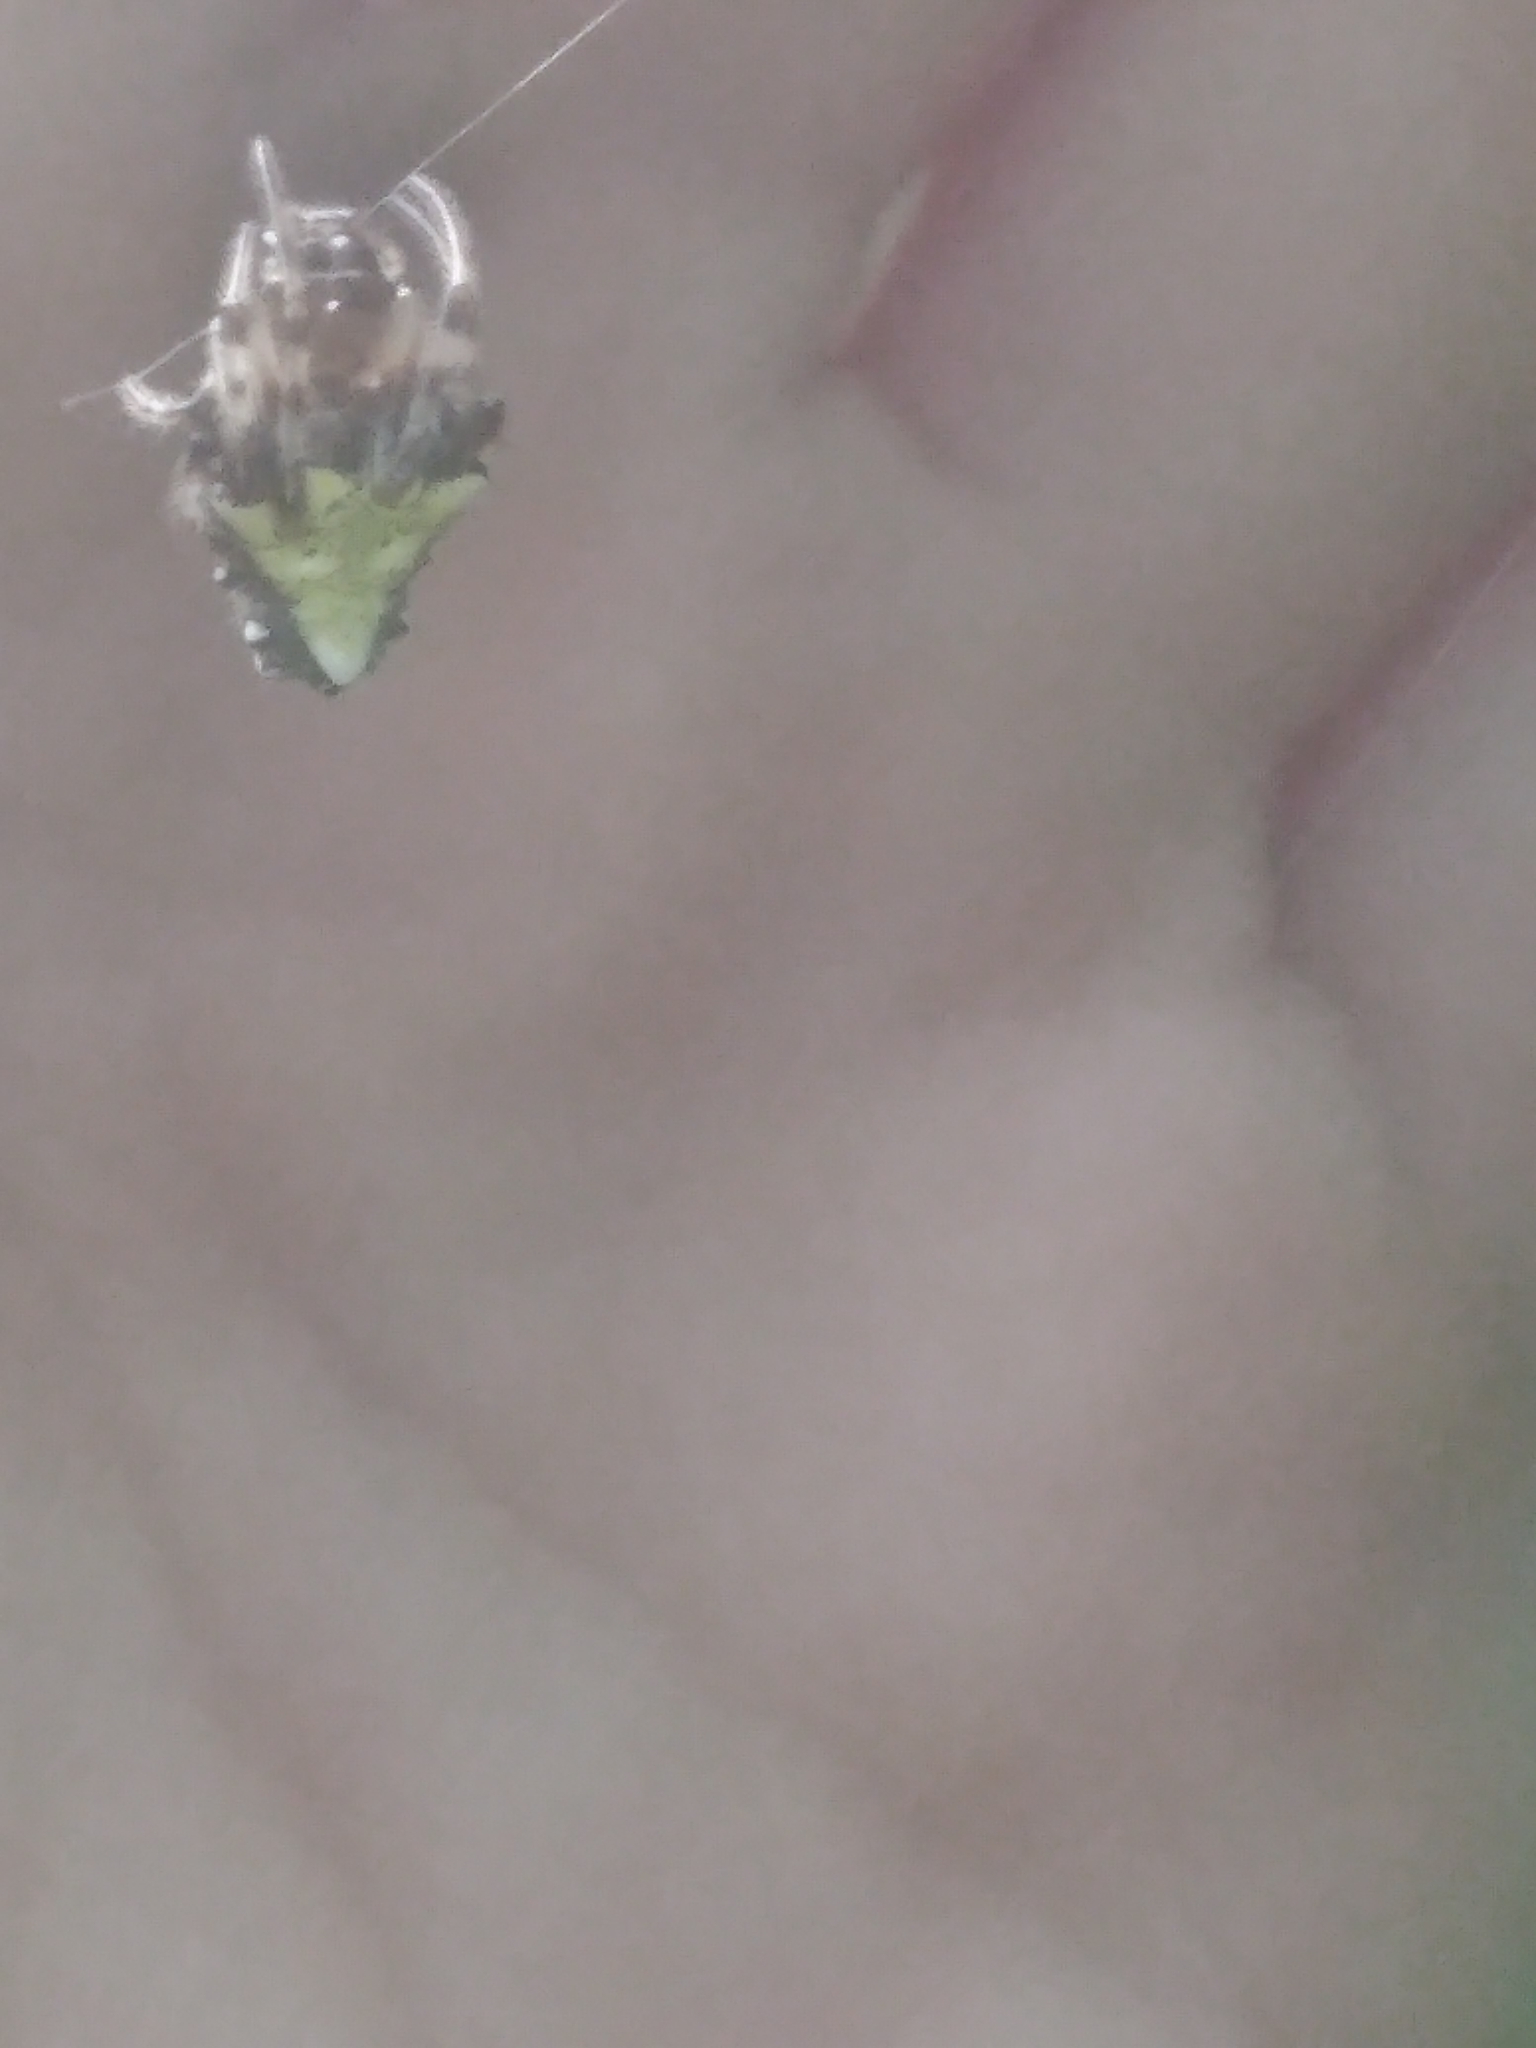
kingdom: Animalia
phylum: Arthropoda
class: Arachnida
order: Araneae
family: Araneidae
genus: Verrucosa
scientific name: Verrucosa arenata
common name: Orb weavers
